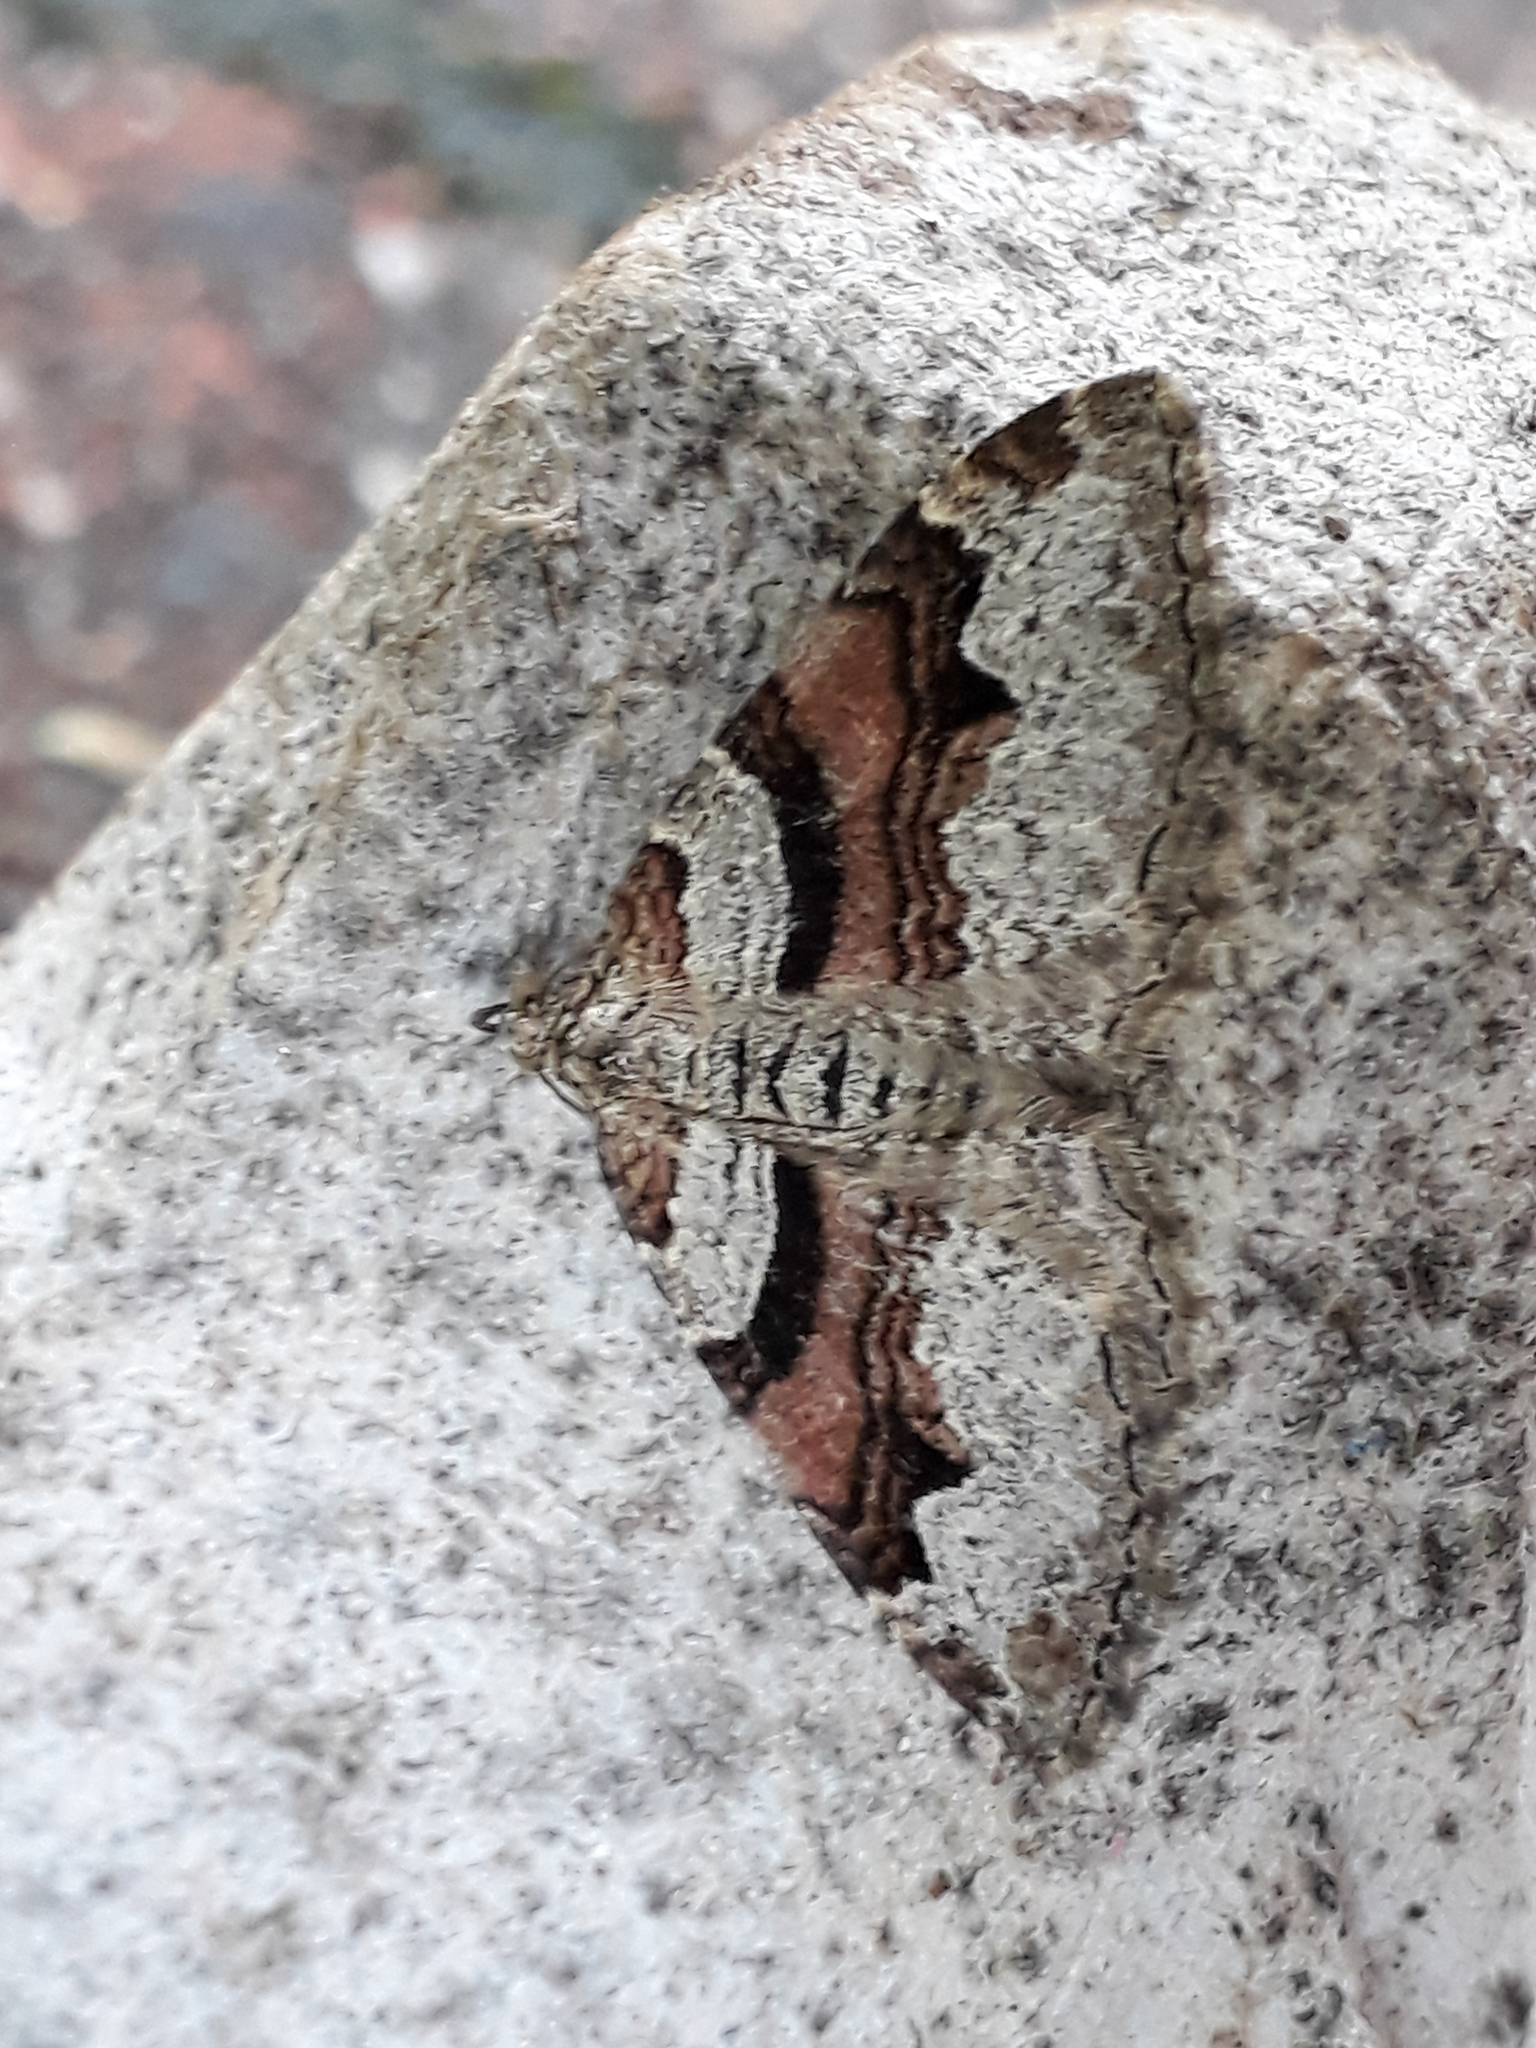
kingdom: Animalia
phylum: Arthropoda
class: Insecta
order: Lepidoptera
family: Geometridae
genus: Xanthorhoe
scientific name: Xanthorhoe designata
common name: Flame carpet
